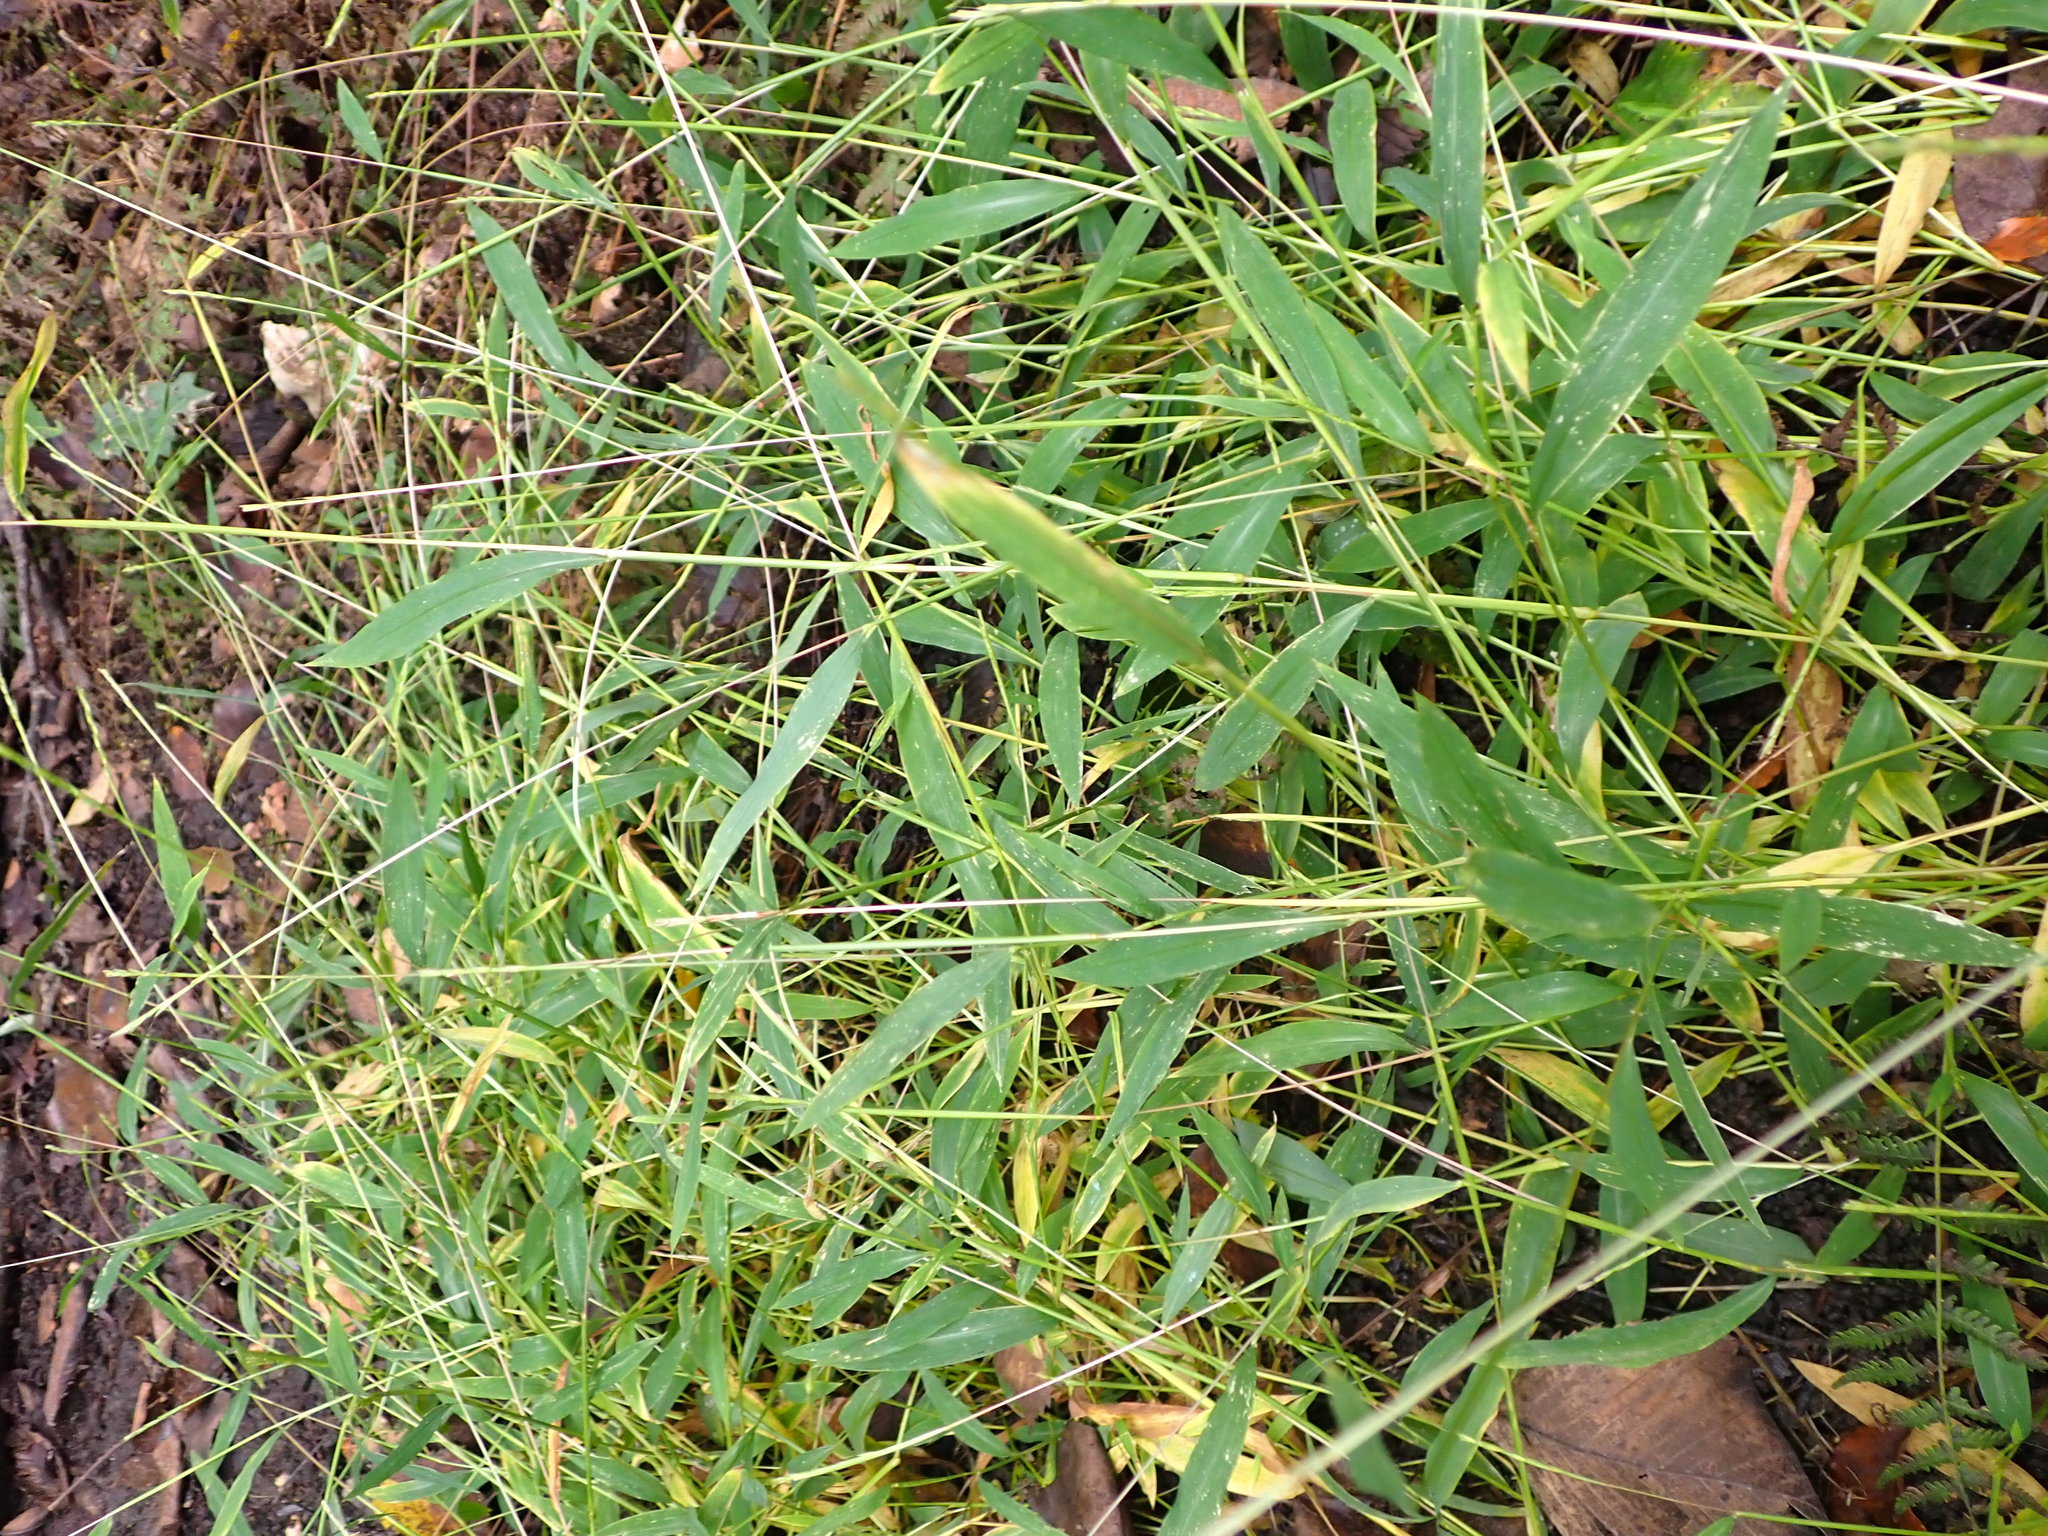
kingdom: Plantae
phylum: Tracheophyta
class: Liliopsida
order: Poales
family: Poaceae
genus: Microstegium
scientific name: Microstegium vimineum
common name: Japanese stiltgrass
